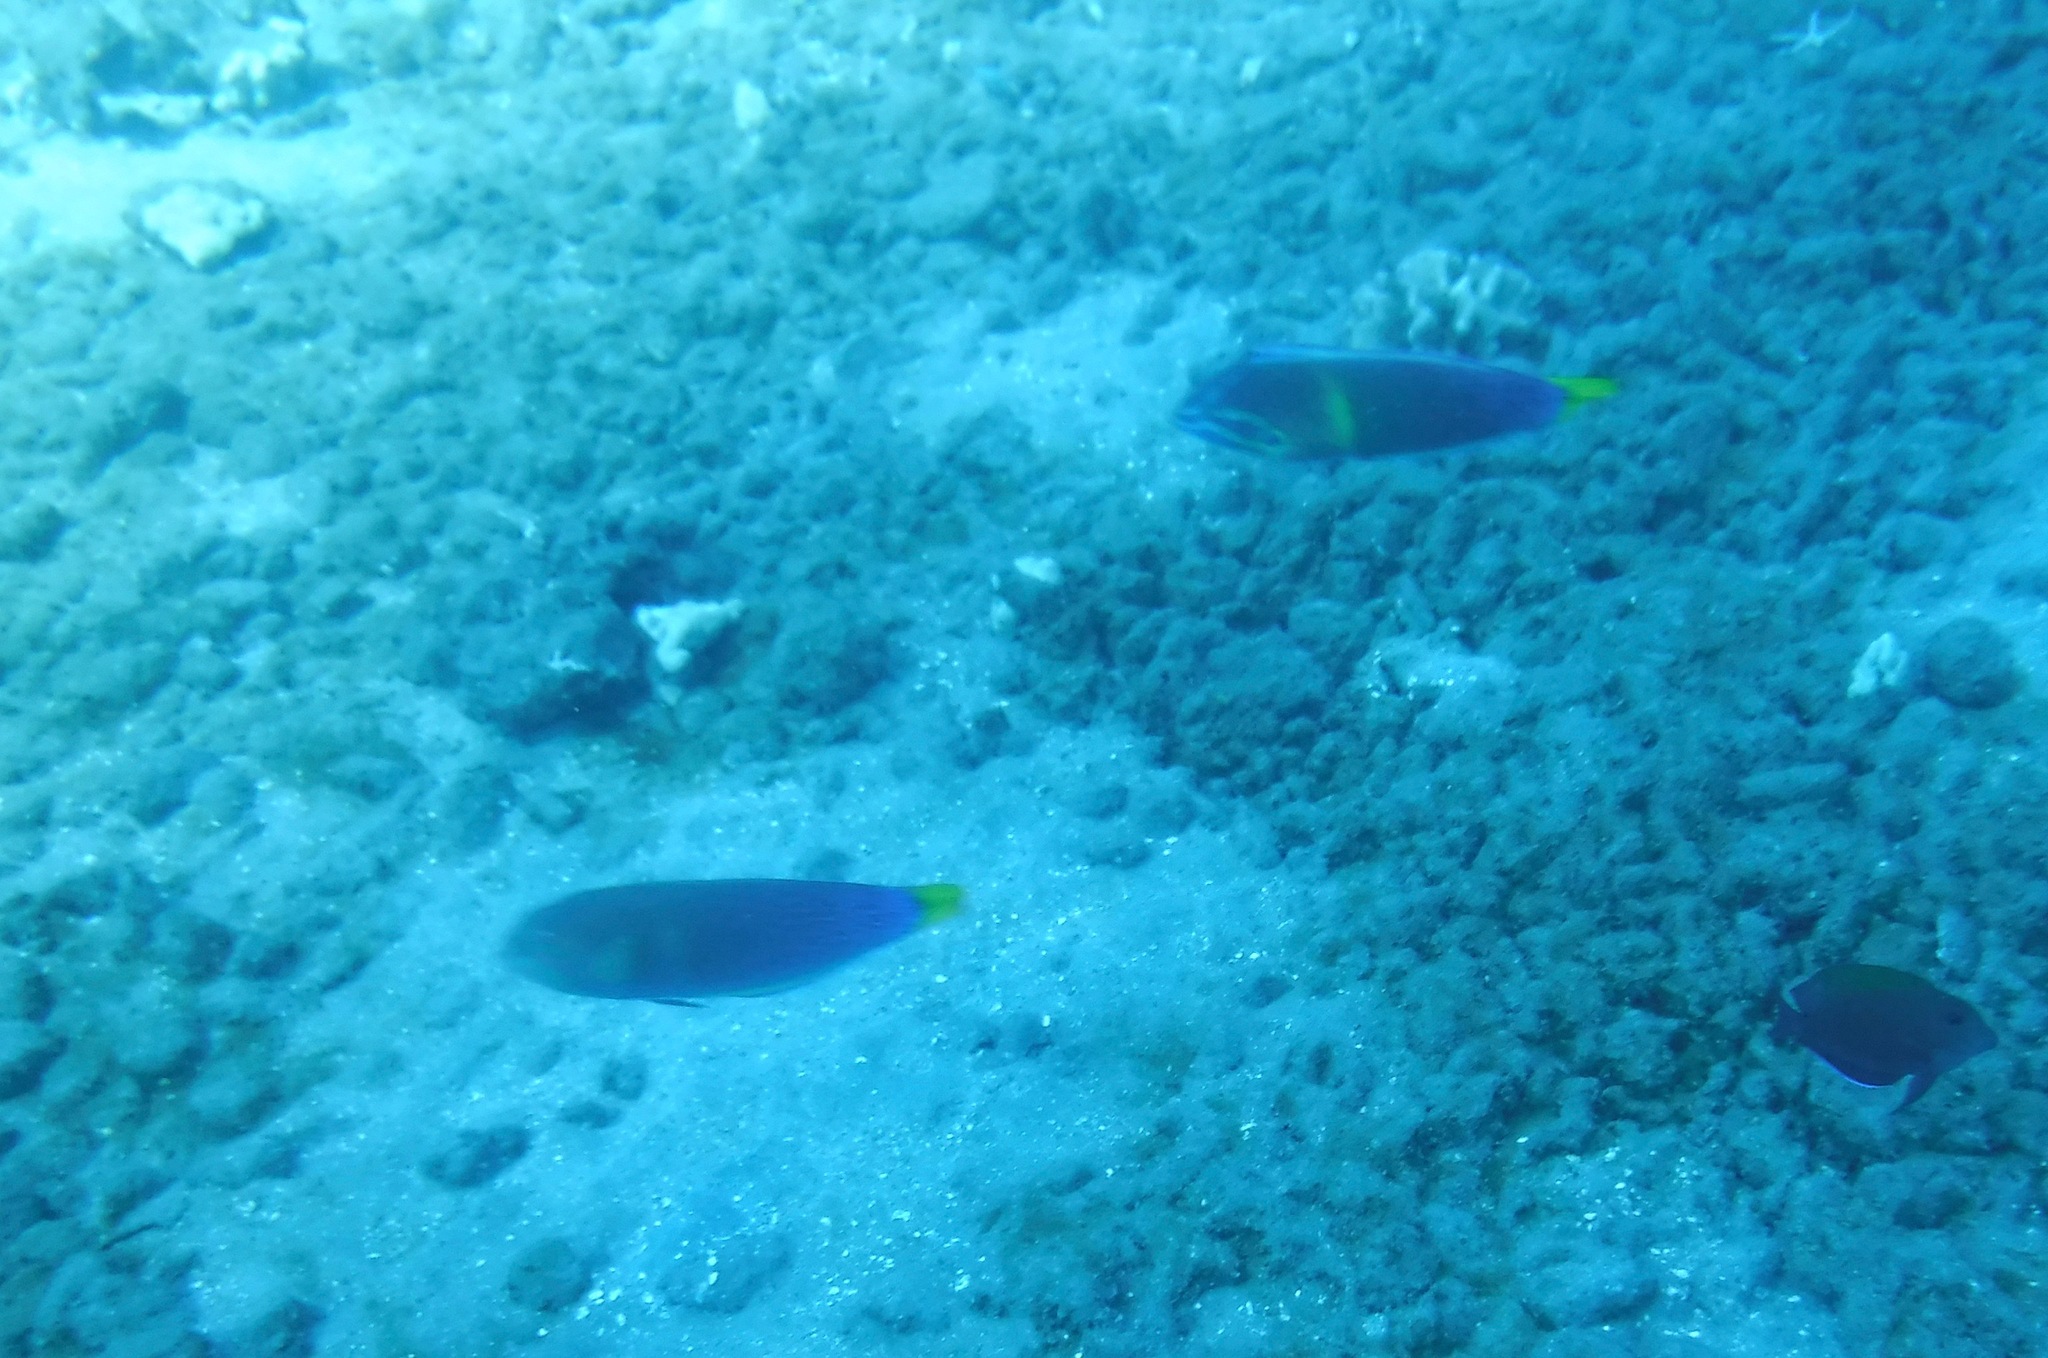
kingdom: Animalia
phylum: Chordata
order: Perciformes
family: Labridae
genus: Coris
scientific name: Coris gaimard
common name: Yellowtail coris
